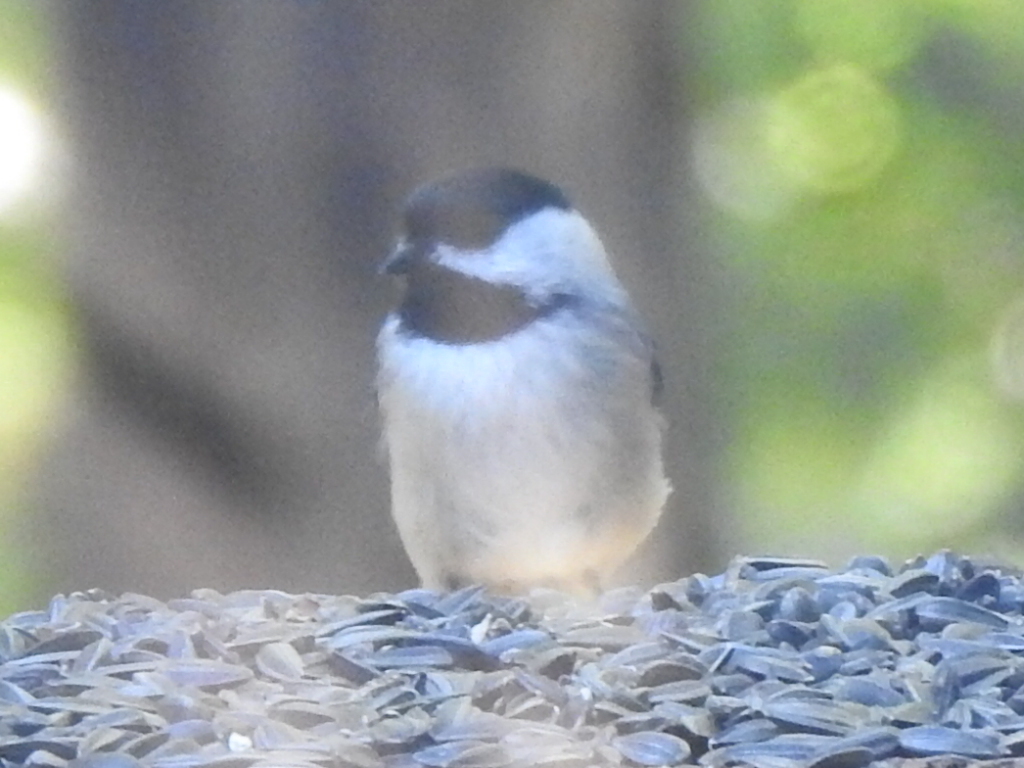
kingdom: Animalia
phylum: Chordata
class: Aves
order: Passeriformes
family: Paridae
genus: Poecile
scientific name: Poecile carolinensis
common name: Carolina chickadee
